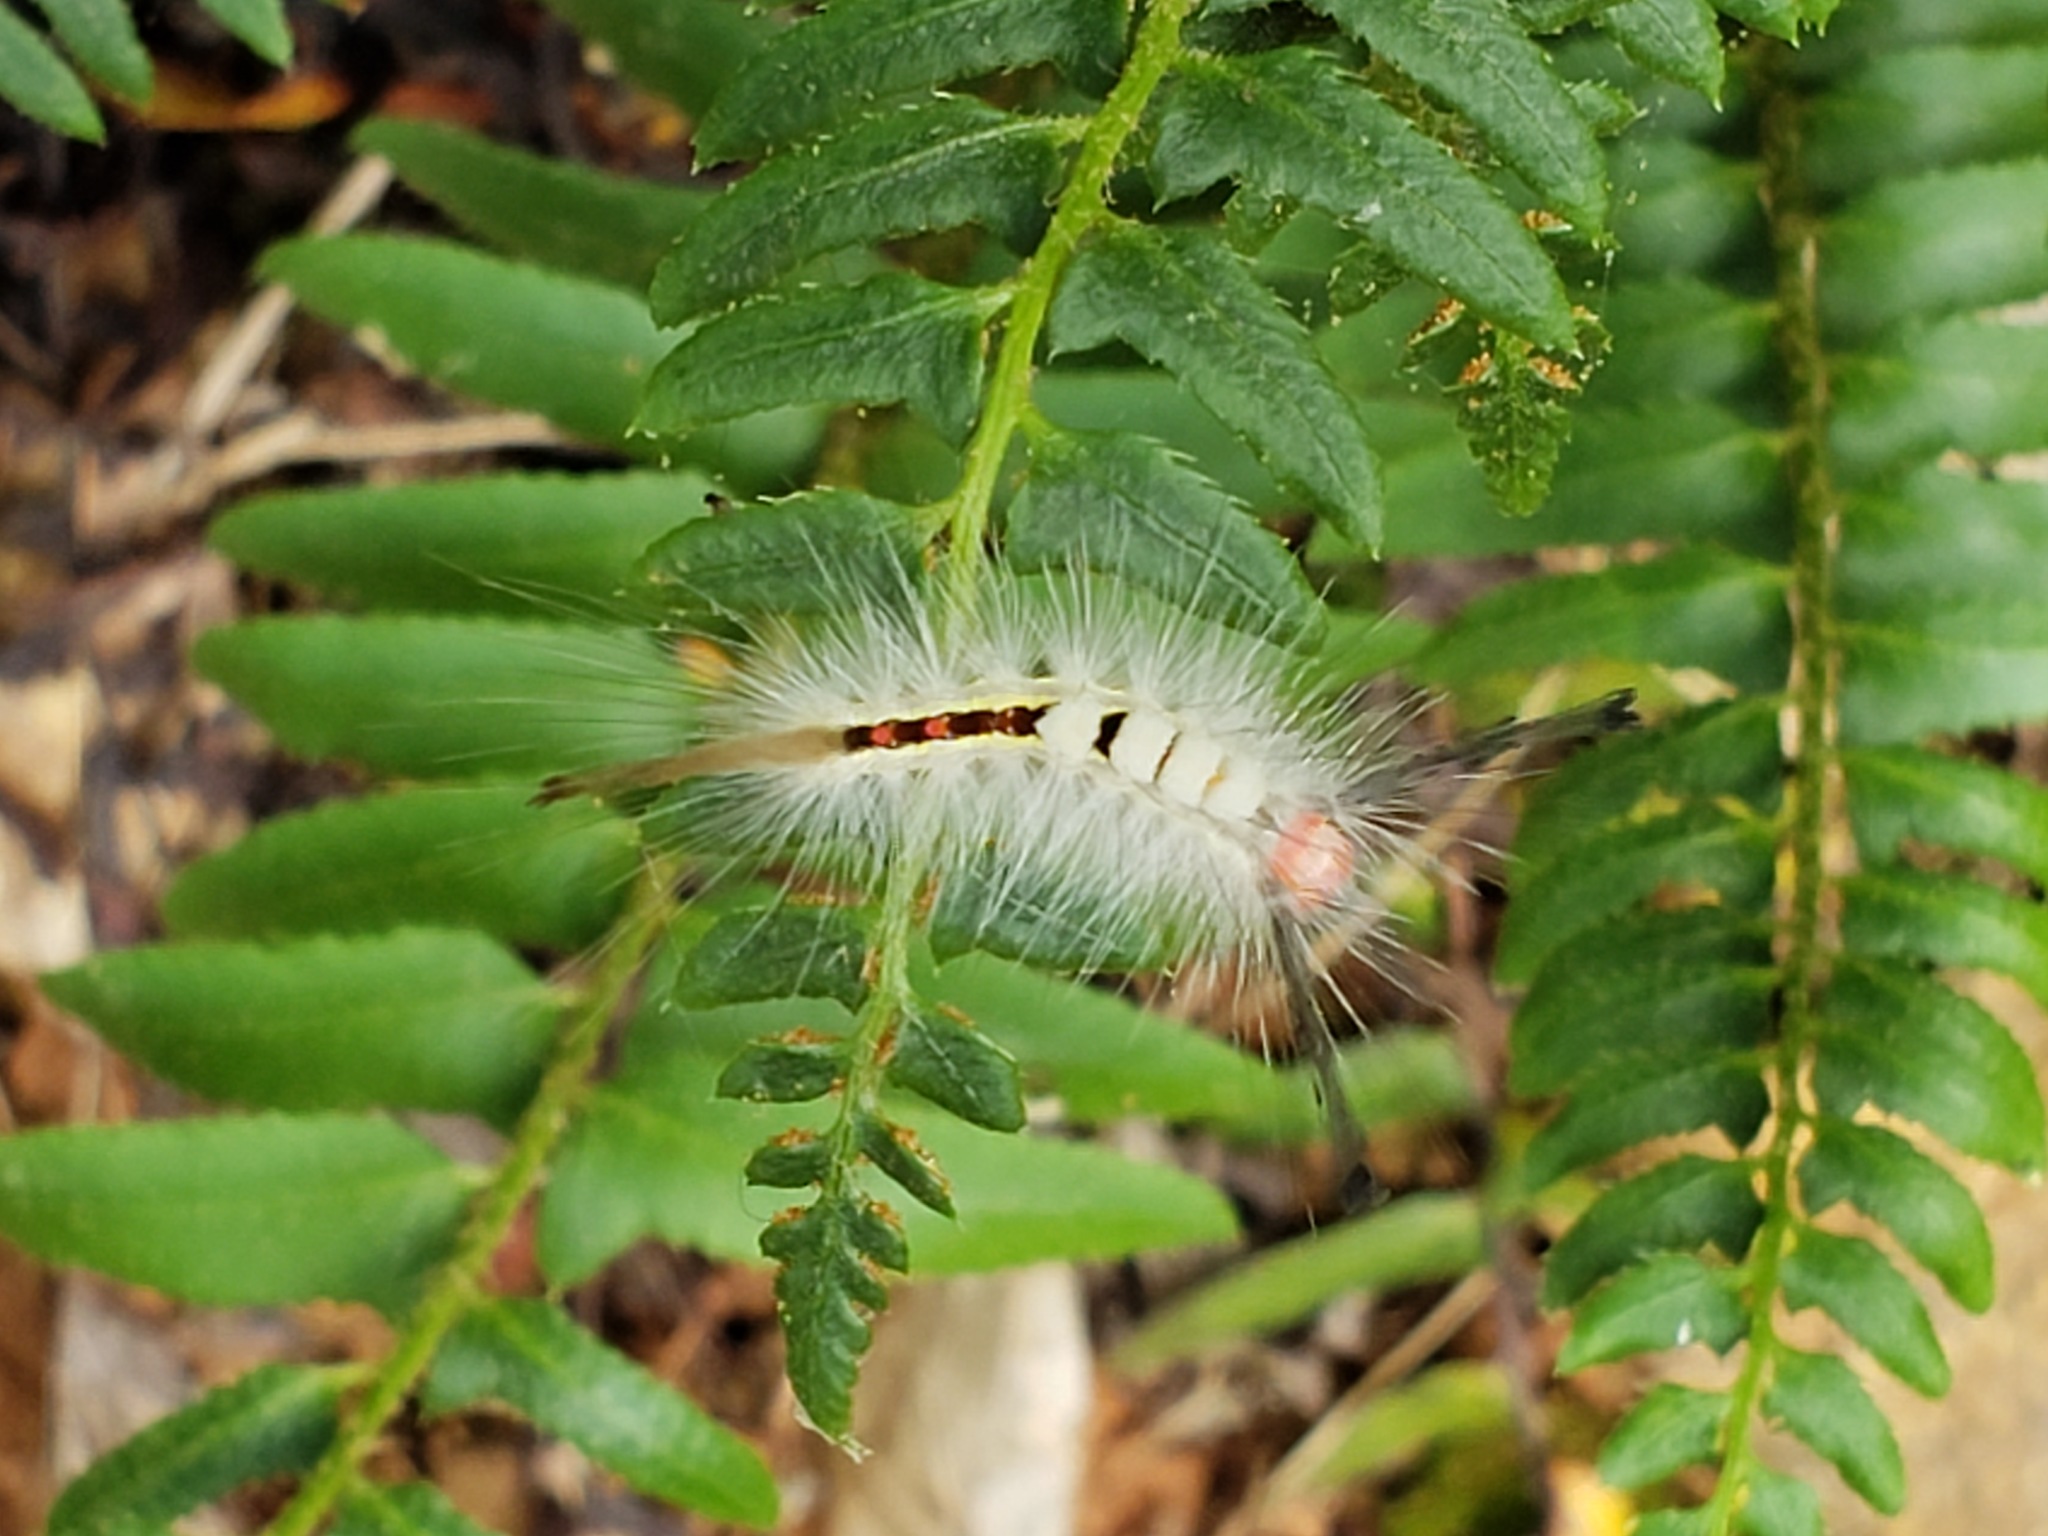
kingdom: Animalia
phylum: Arthropoda
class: Insecta
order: Lepidoptera
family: Erebidae
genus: Orgyia
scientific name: Orgyia leucostigma
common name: White-marked tussock moth
